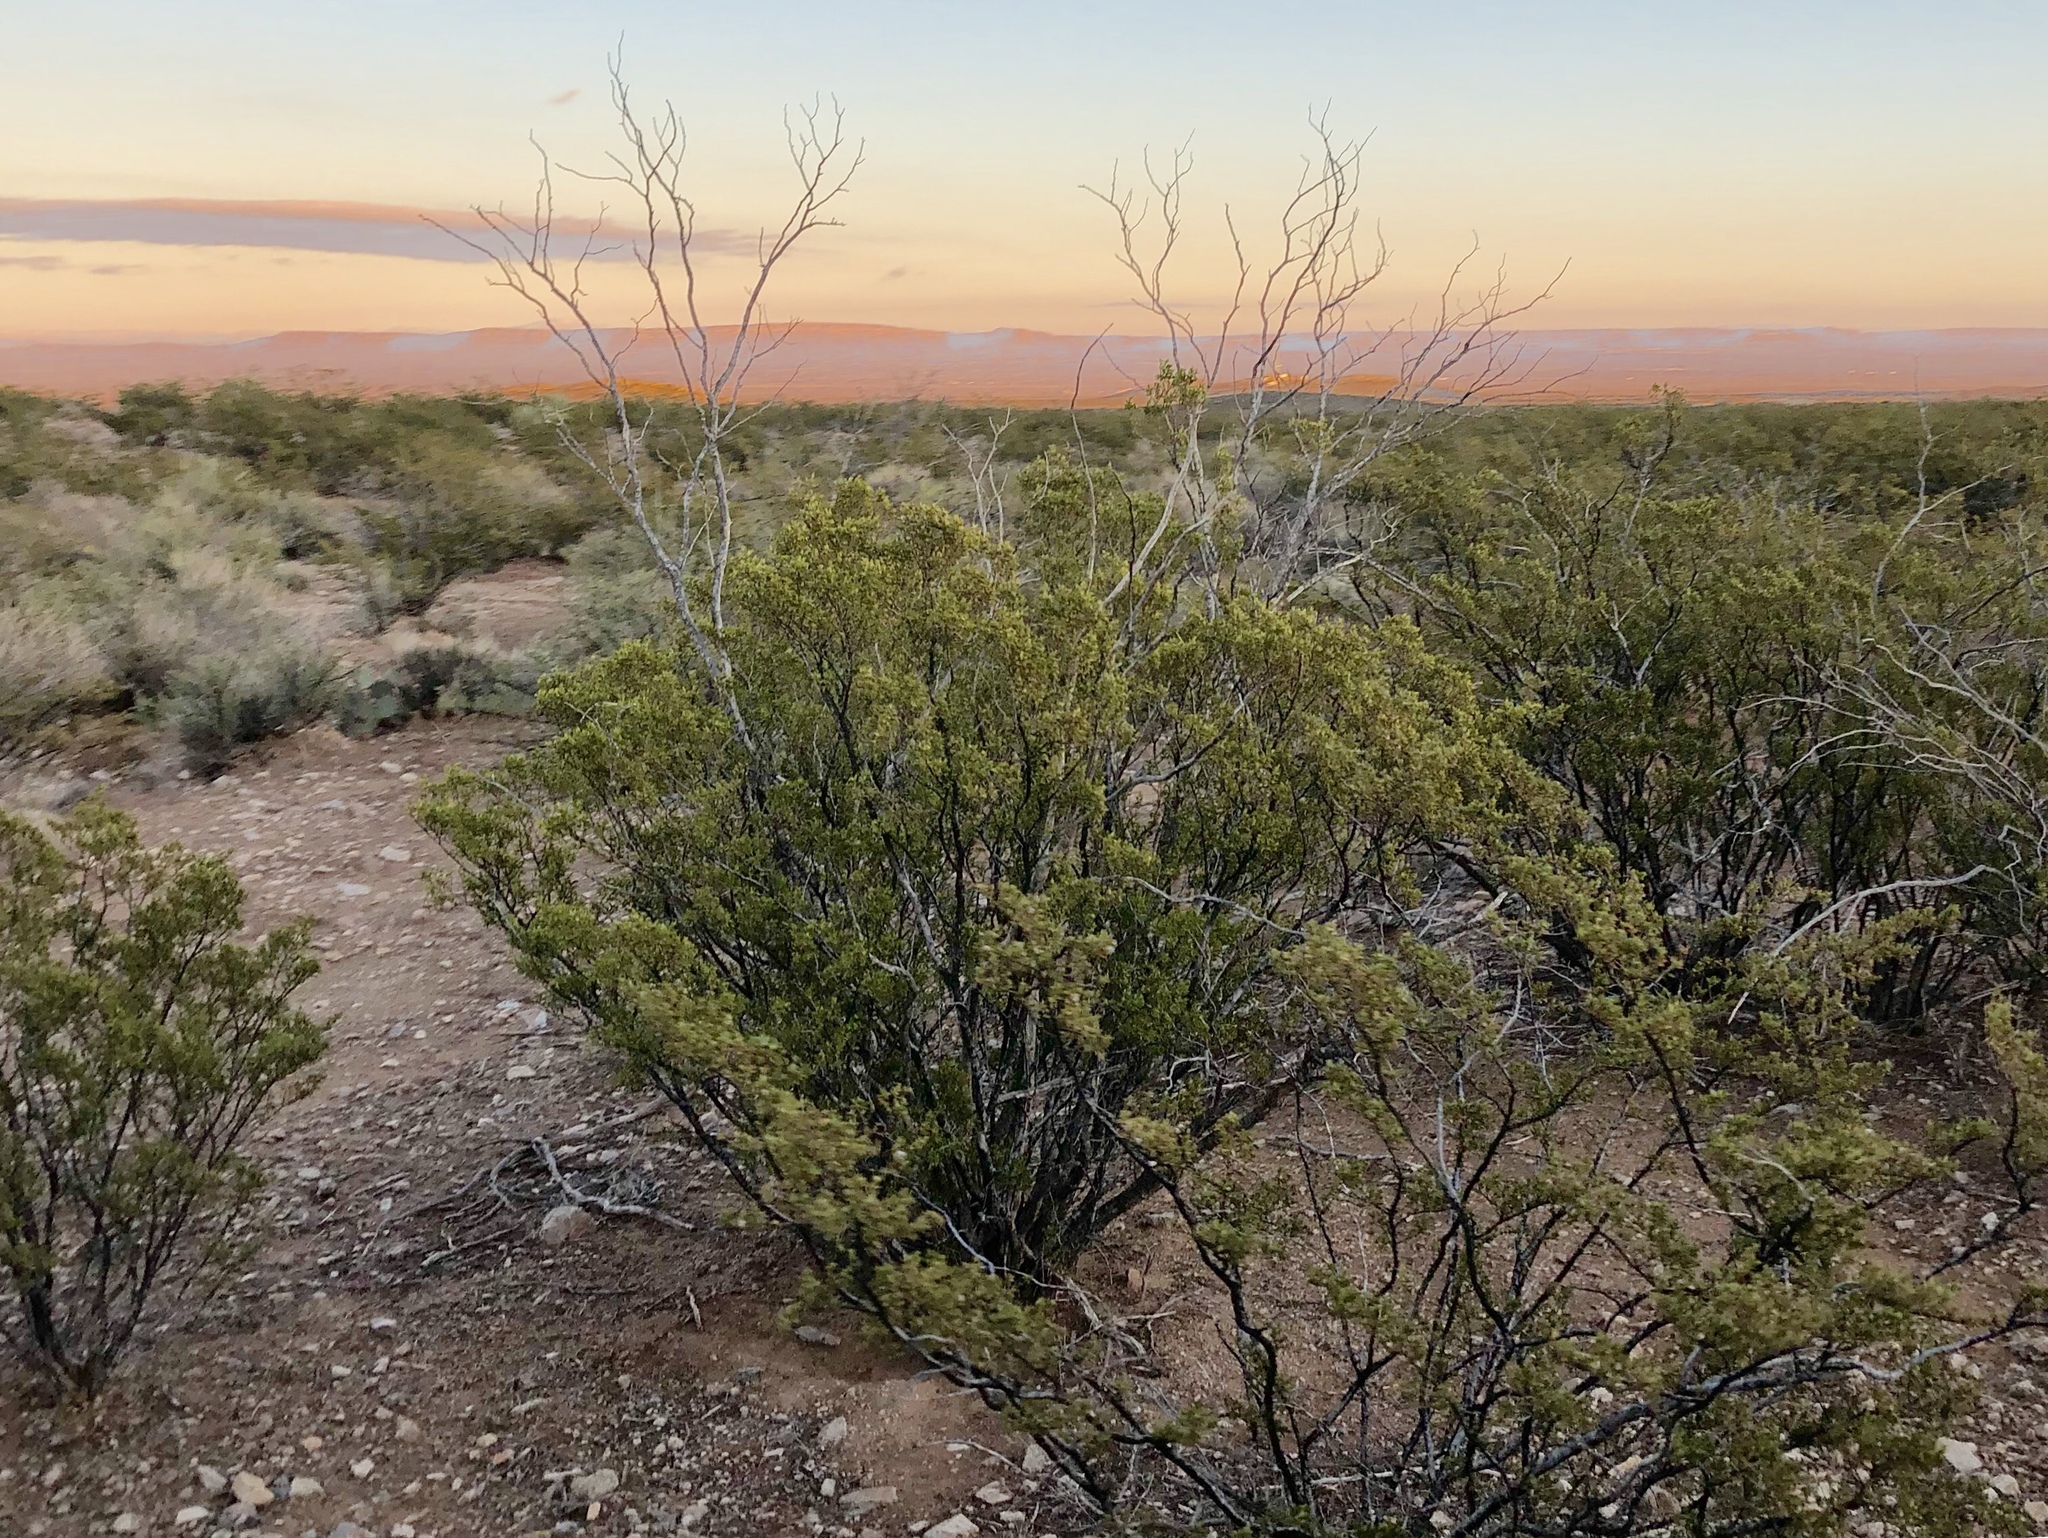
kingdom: Plantae
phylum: Tracheophyta
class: Magnoliopsida
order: Zygophyllales
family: Zygophyllaceae
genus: Larrea
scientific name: Larrea tridentata
